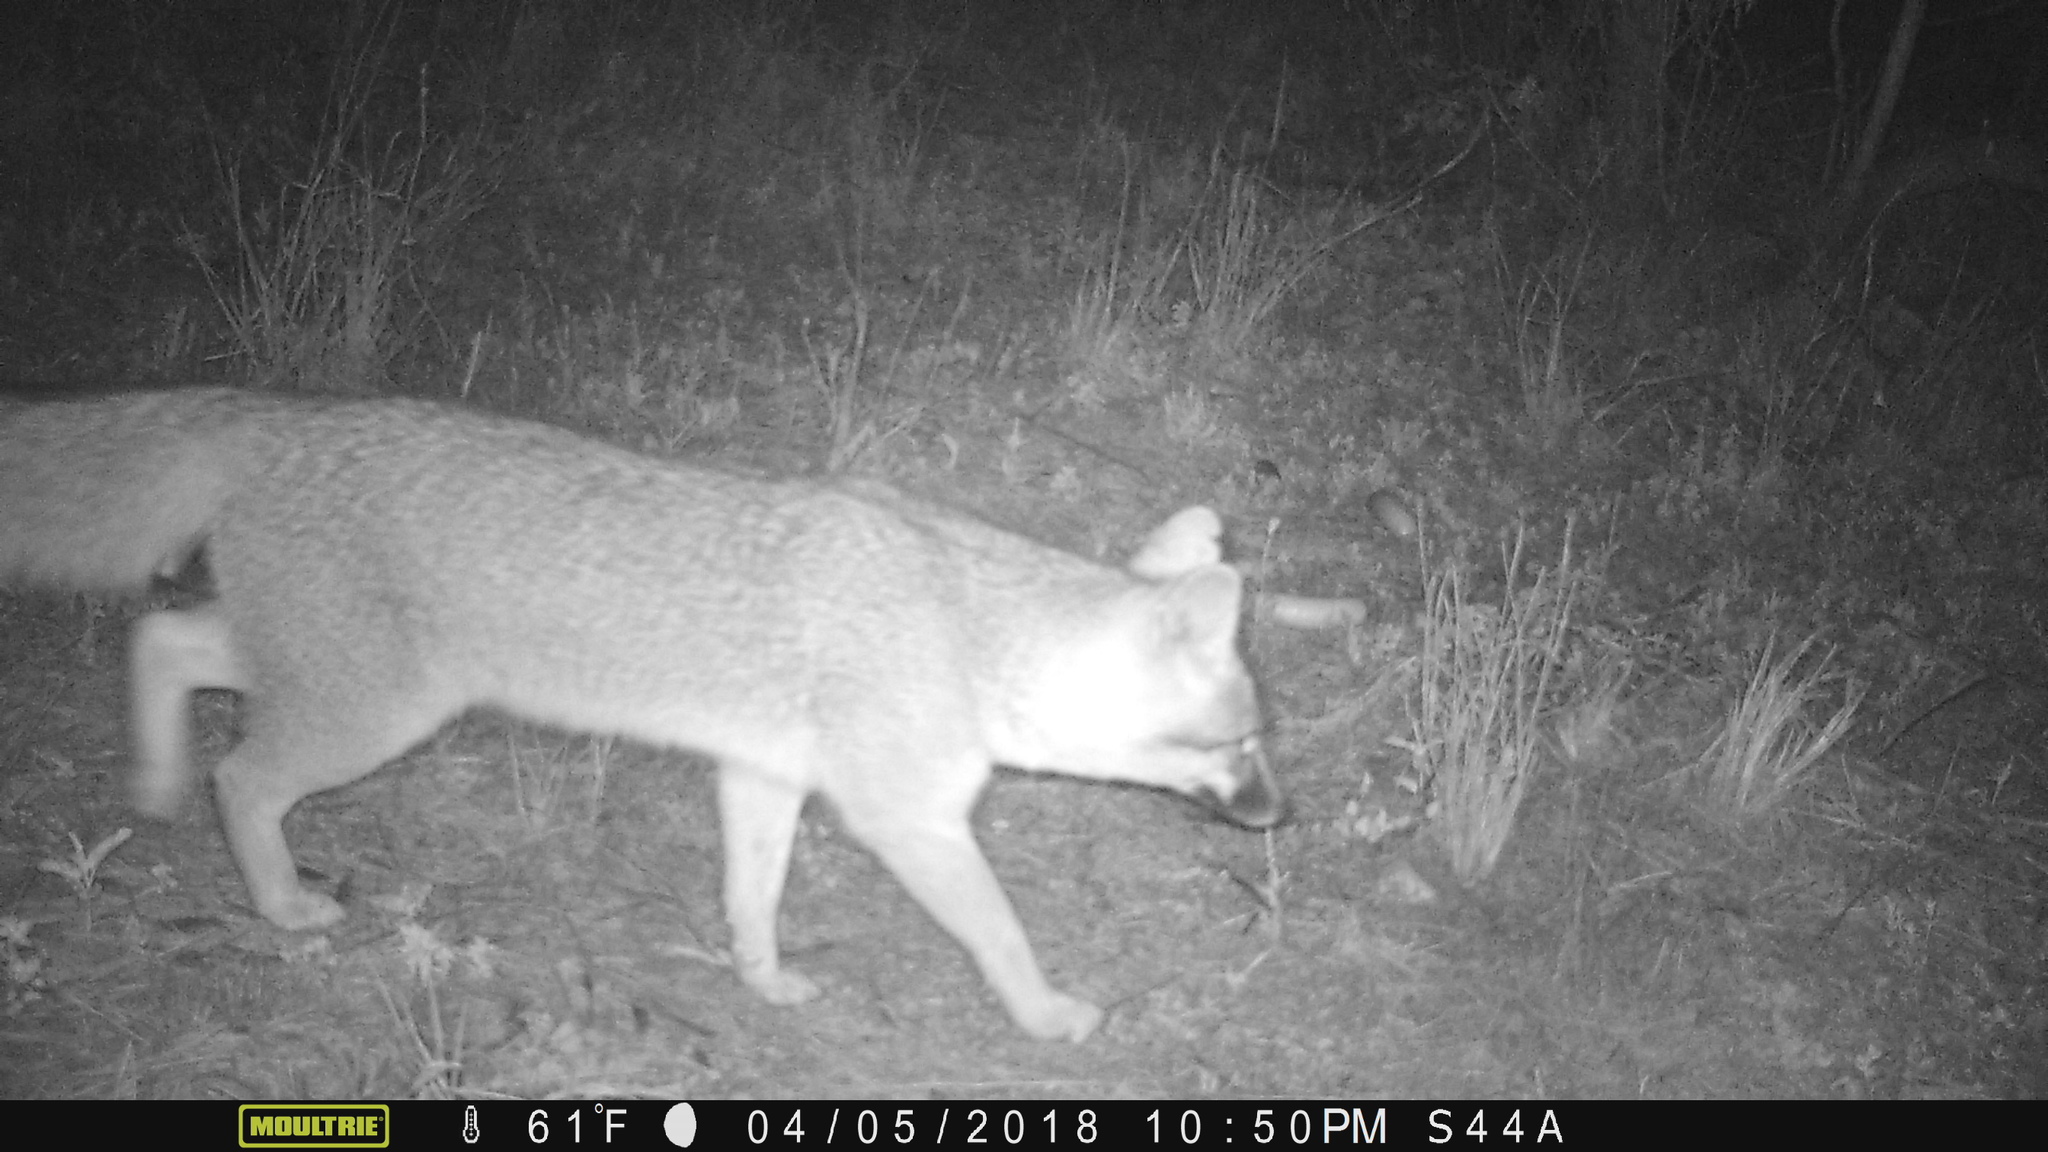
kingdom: Animalia
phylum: Chordata
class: Mammalia
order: Carnivora
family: Canidae
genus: Urocyon
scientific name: Urocyon cinereoargenteus
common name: Gray fox
